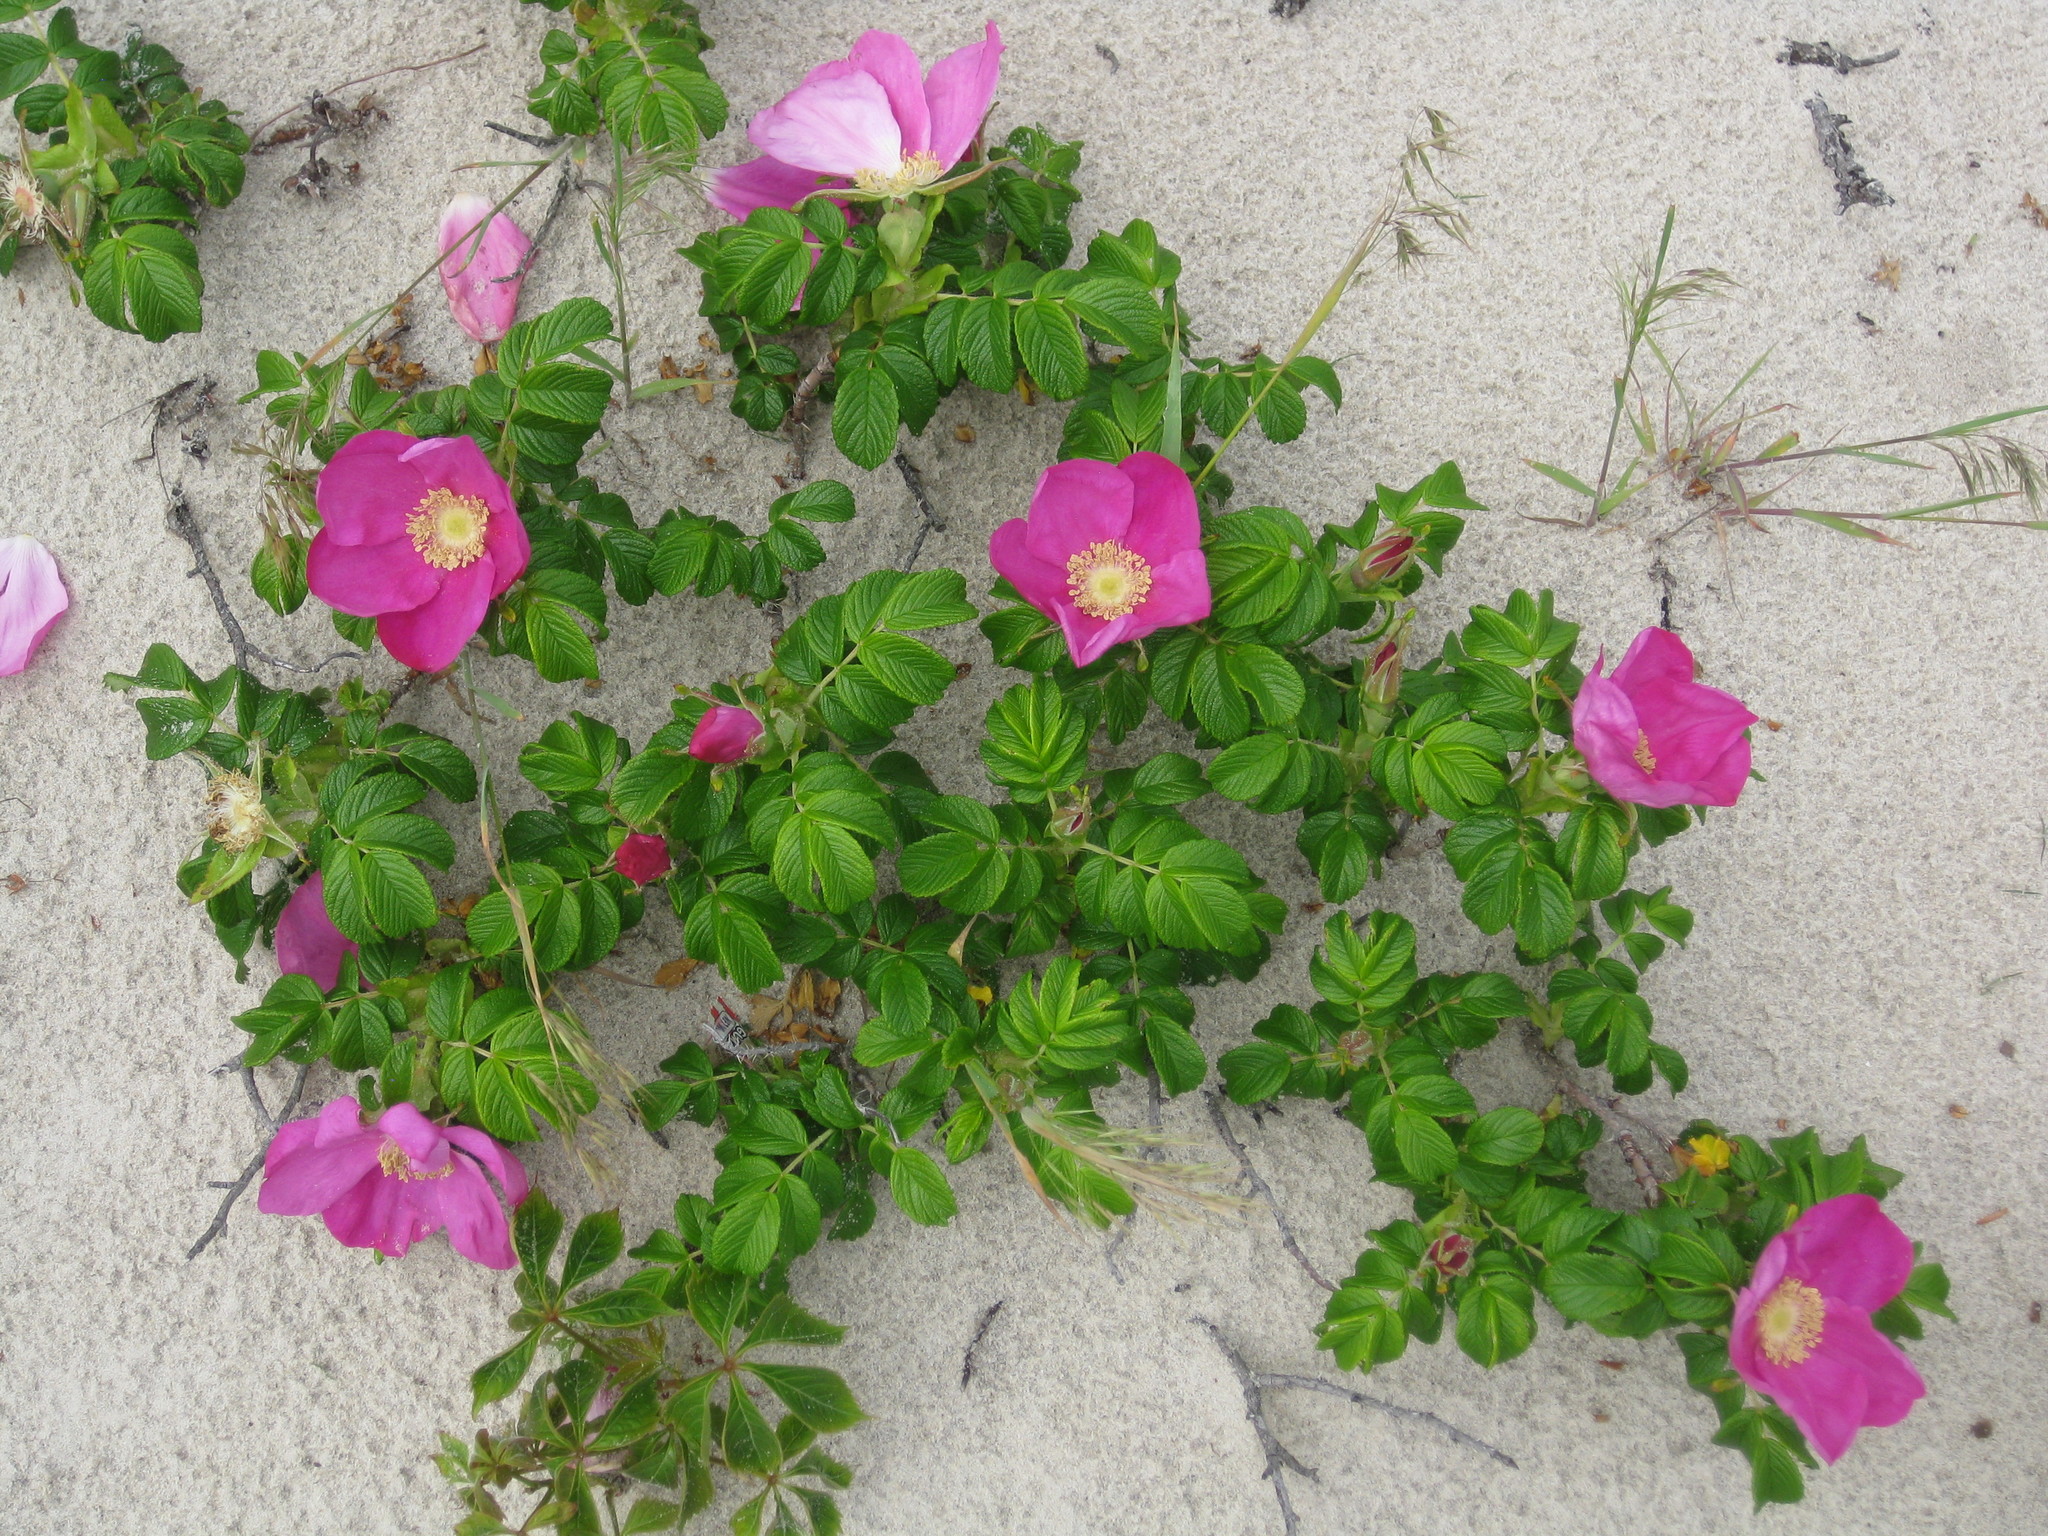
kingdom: Plantae
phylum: Tracheophyta
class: Magnoliopsida
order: Rosales
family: Rosaceae
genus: Rosa
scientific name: Rosa rugosa
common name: Japanese rose
